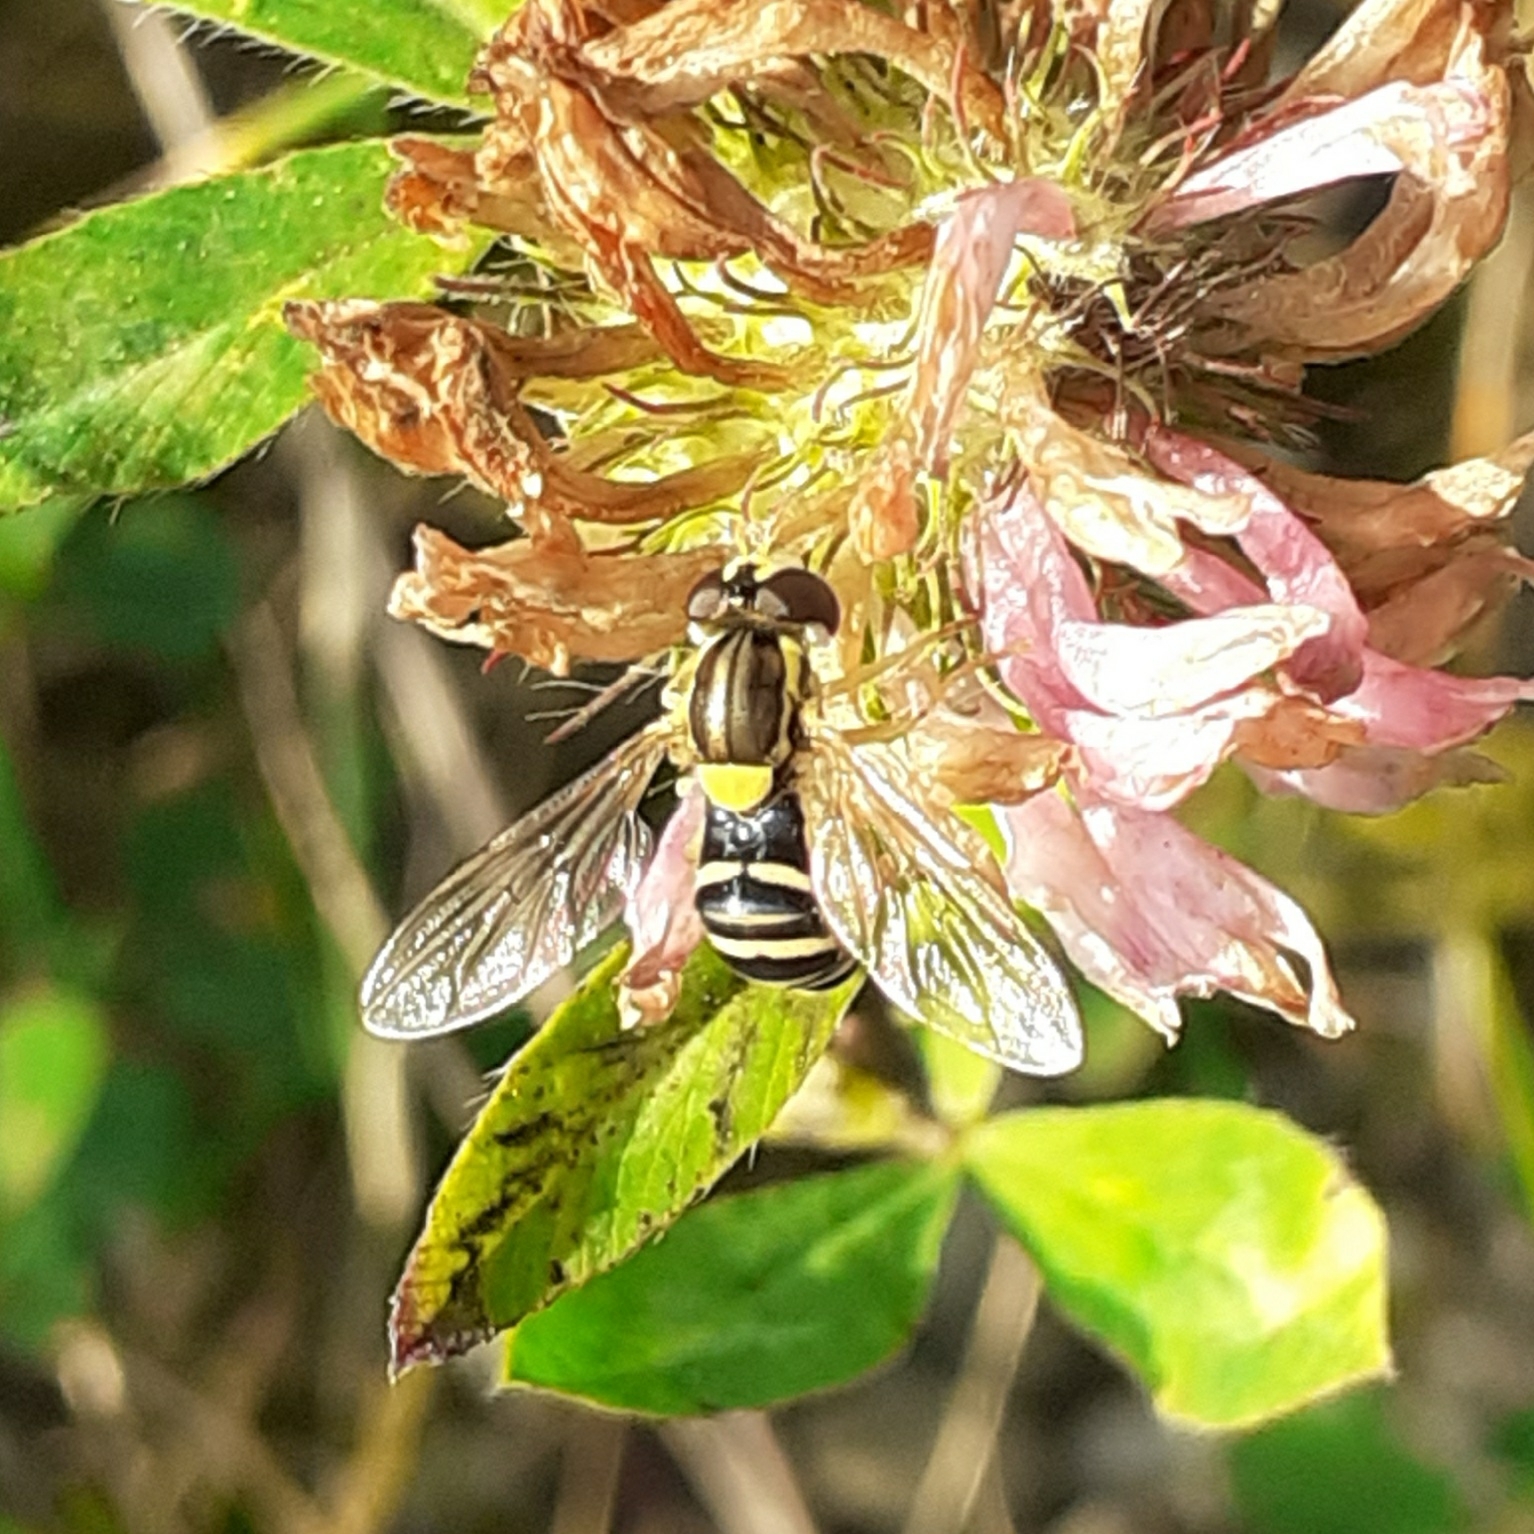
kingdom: Animalia
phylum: Arthropoda
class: Insecta
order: Diptera
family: Syrphidae
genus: Sphaerophoria
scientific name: Sphaerophoria
